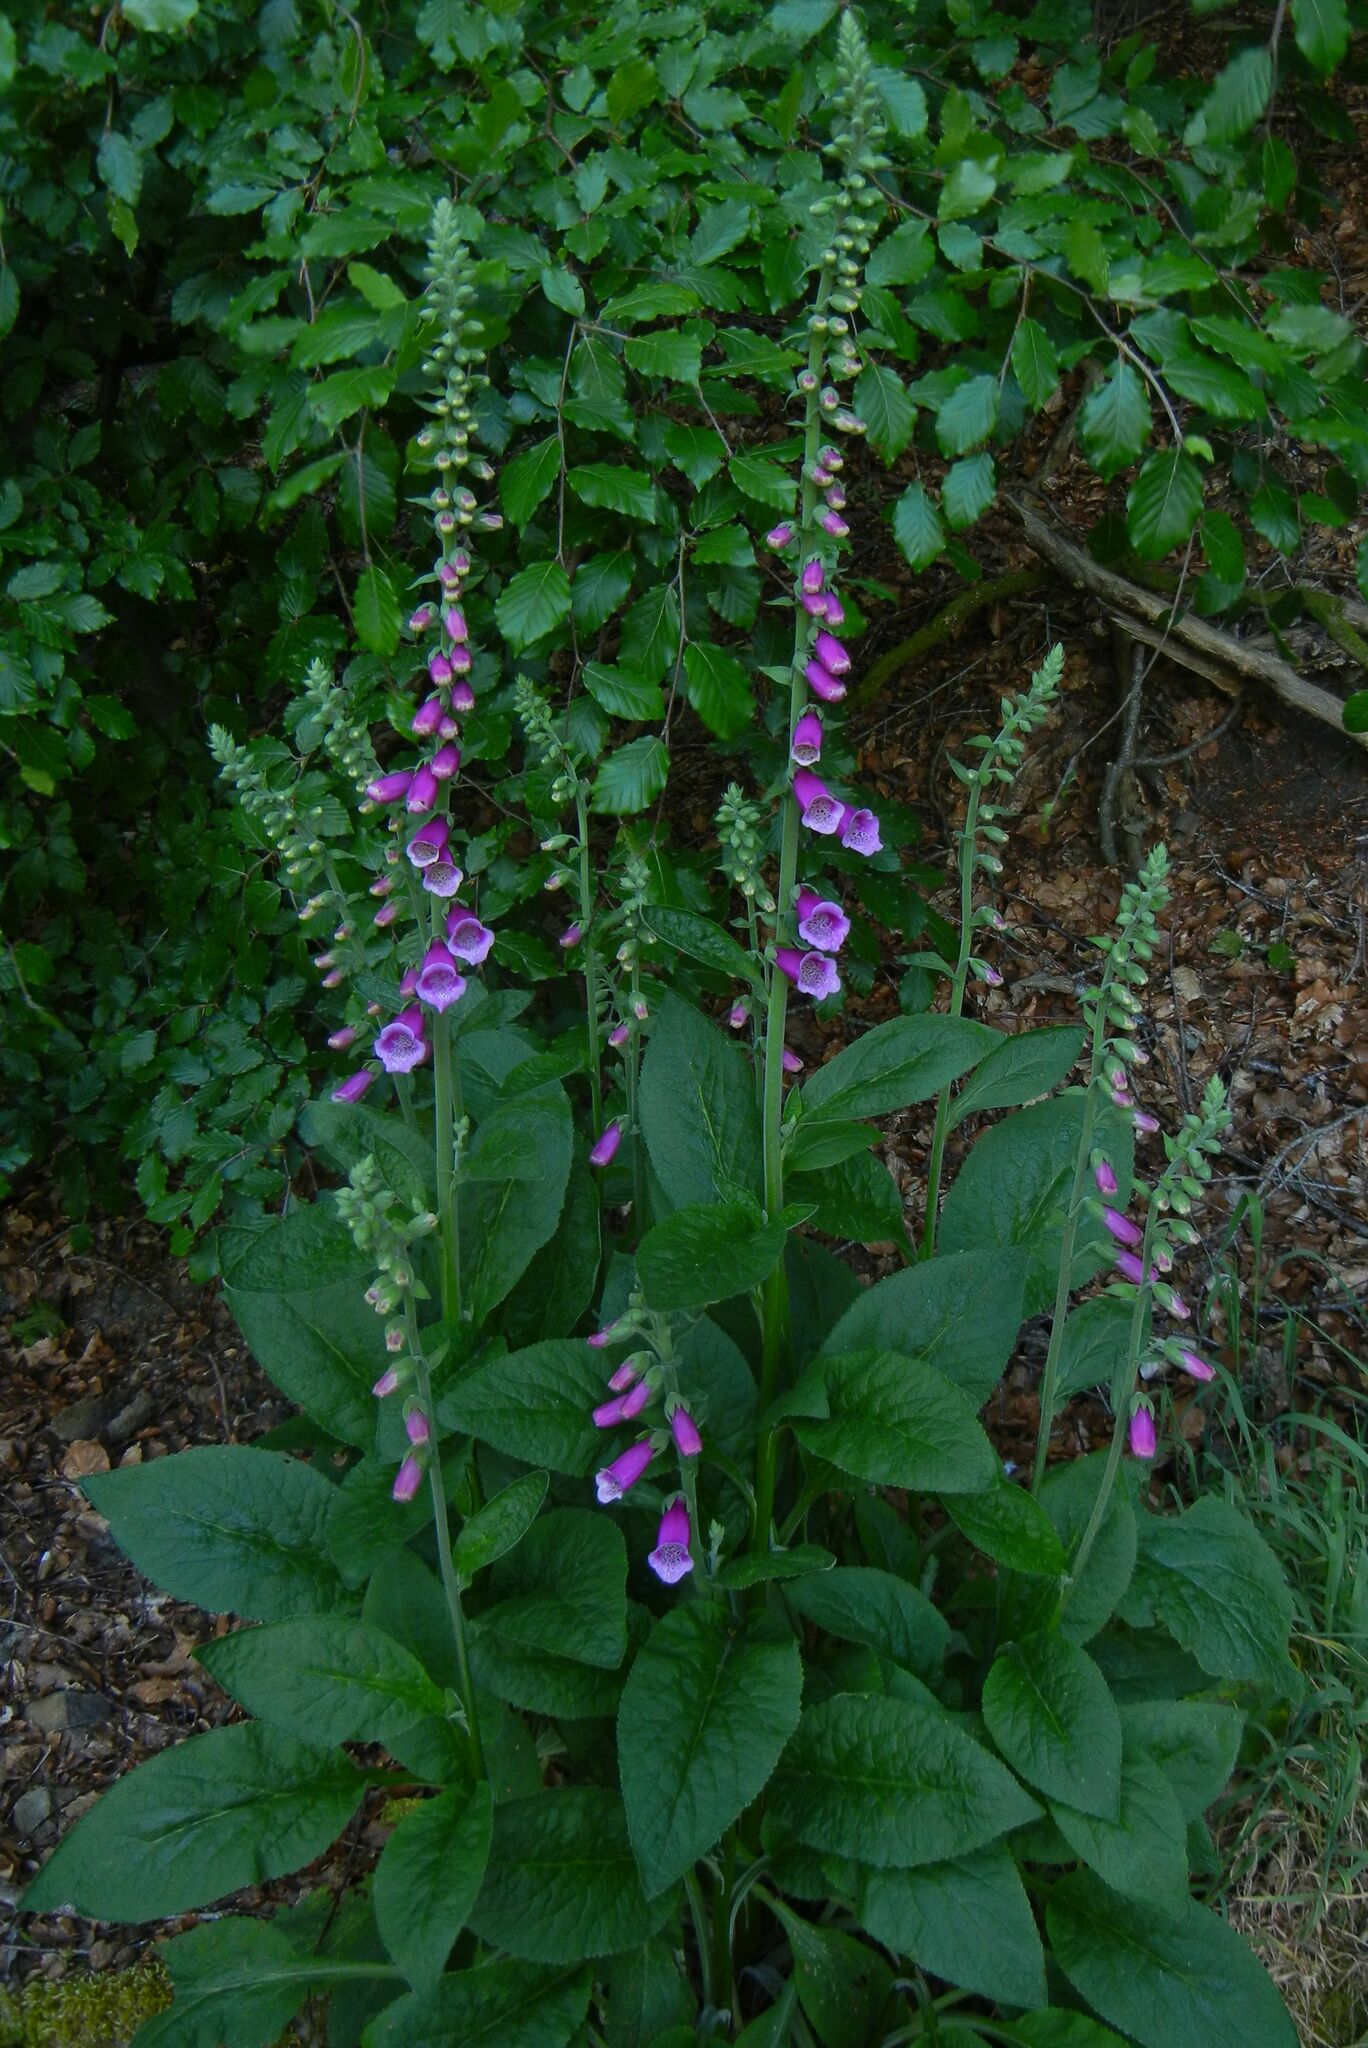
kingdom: Plantae
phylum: Tracheophyta
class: Magnoliopsida
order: Lamiales
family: Plantaginaceae
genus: Digitalis
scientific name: Digitalis purpurea
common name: Foxglove
